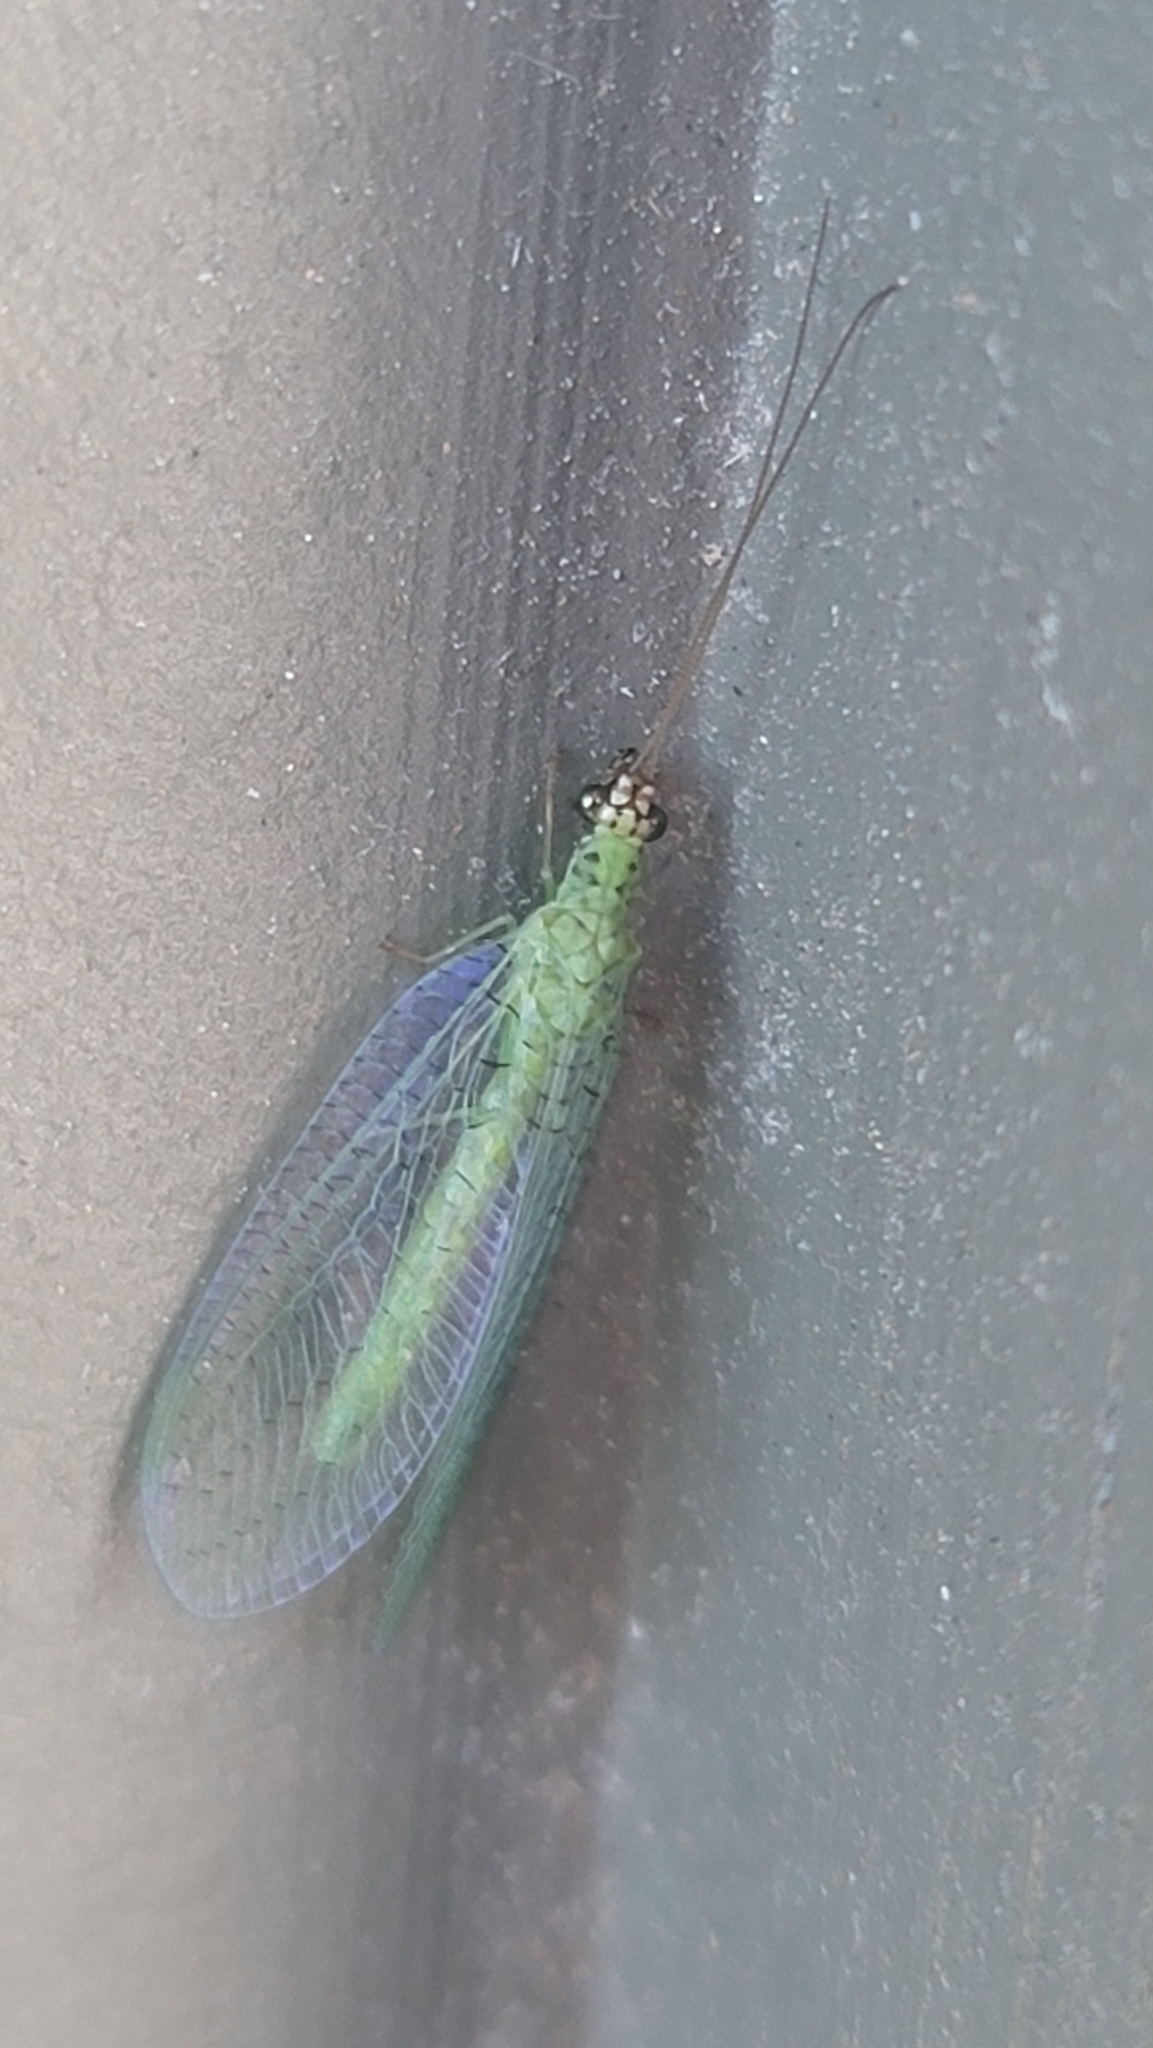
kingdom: Animalia
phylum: Arthropoda
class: Insecta
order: Neuroptera
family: Chrysopidae
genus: Chrysopa
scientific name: Chrysopa oculata
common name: Golden-eyed lacewing
